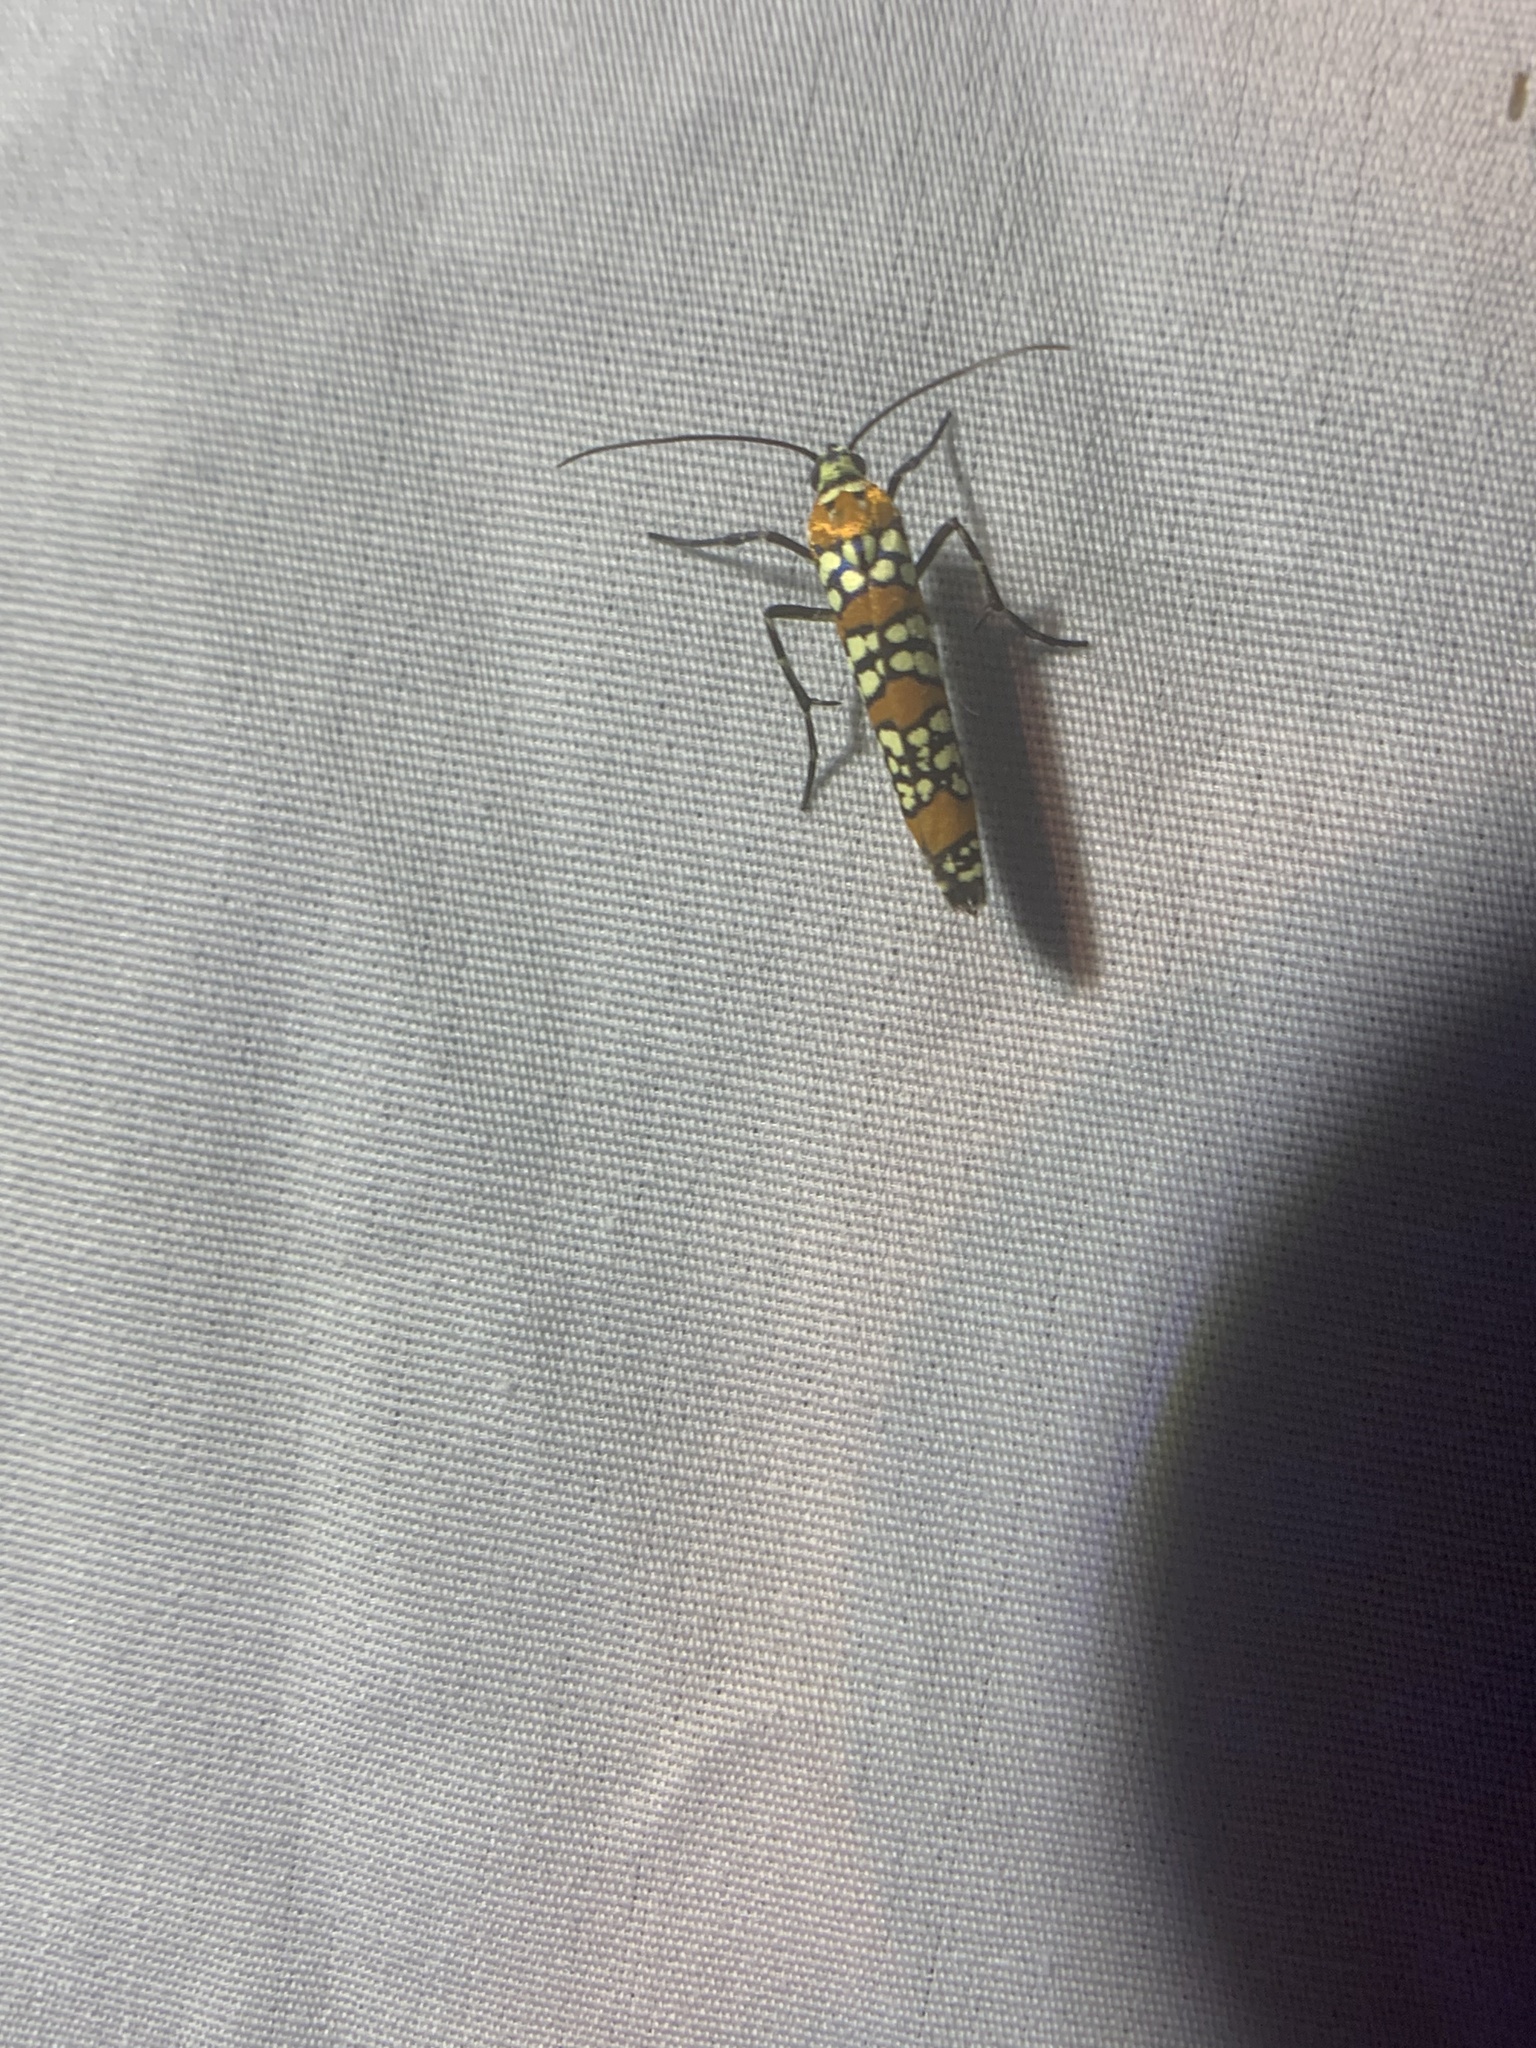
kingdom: Animalia
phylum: Arthropoda
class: Insecta
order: Lepidoptera
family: Attevidae
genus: Atteva
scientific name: Atteva punctella
